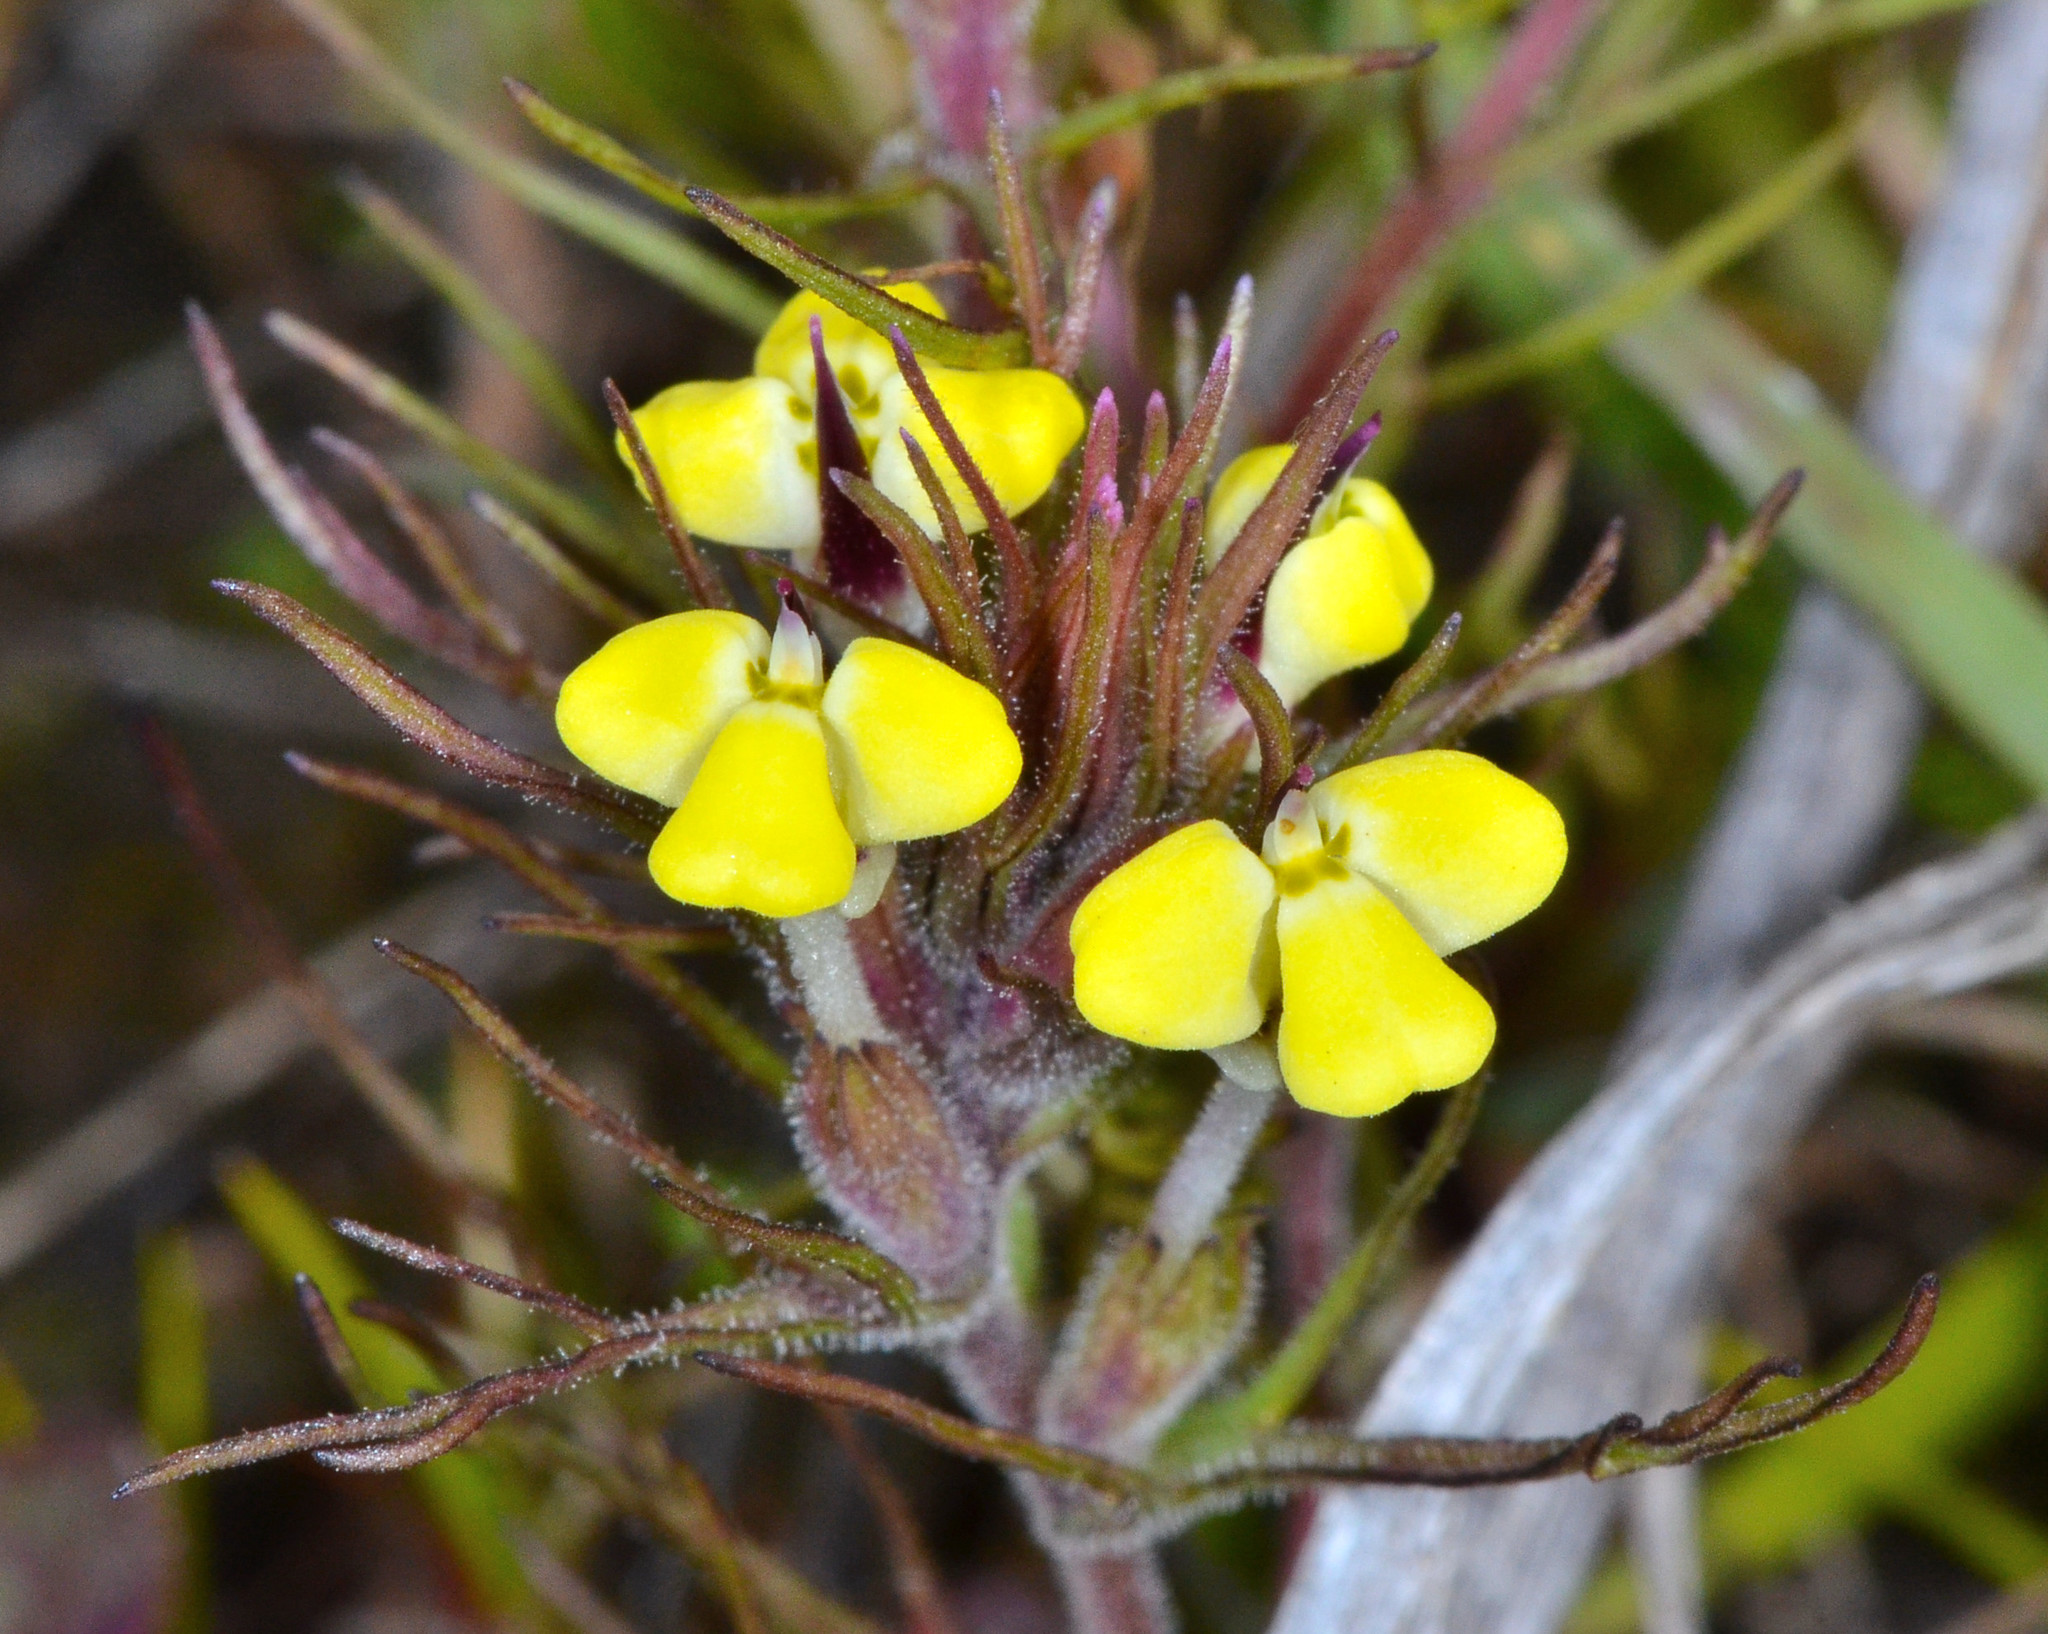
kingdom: Plantae
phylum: Tracheophyta
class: Magnoliopsida
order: Lamiales
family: Orobanchaceae
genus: Triphysaria
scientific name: Triphysaria eriantha
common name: Johnny-tuck
